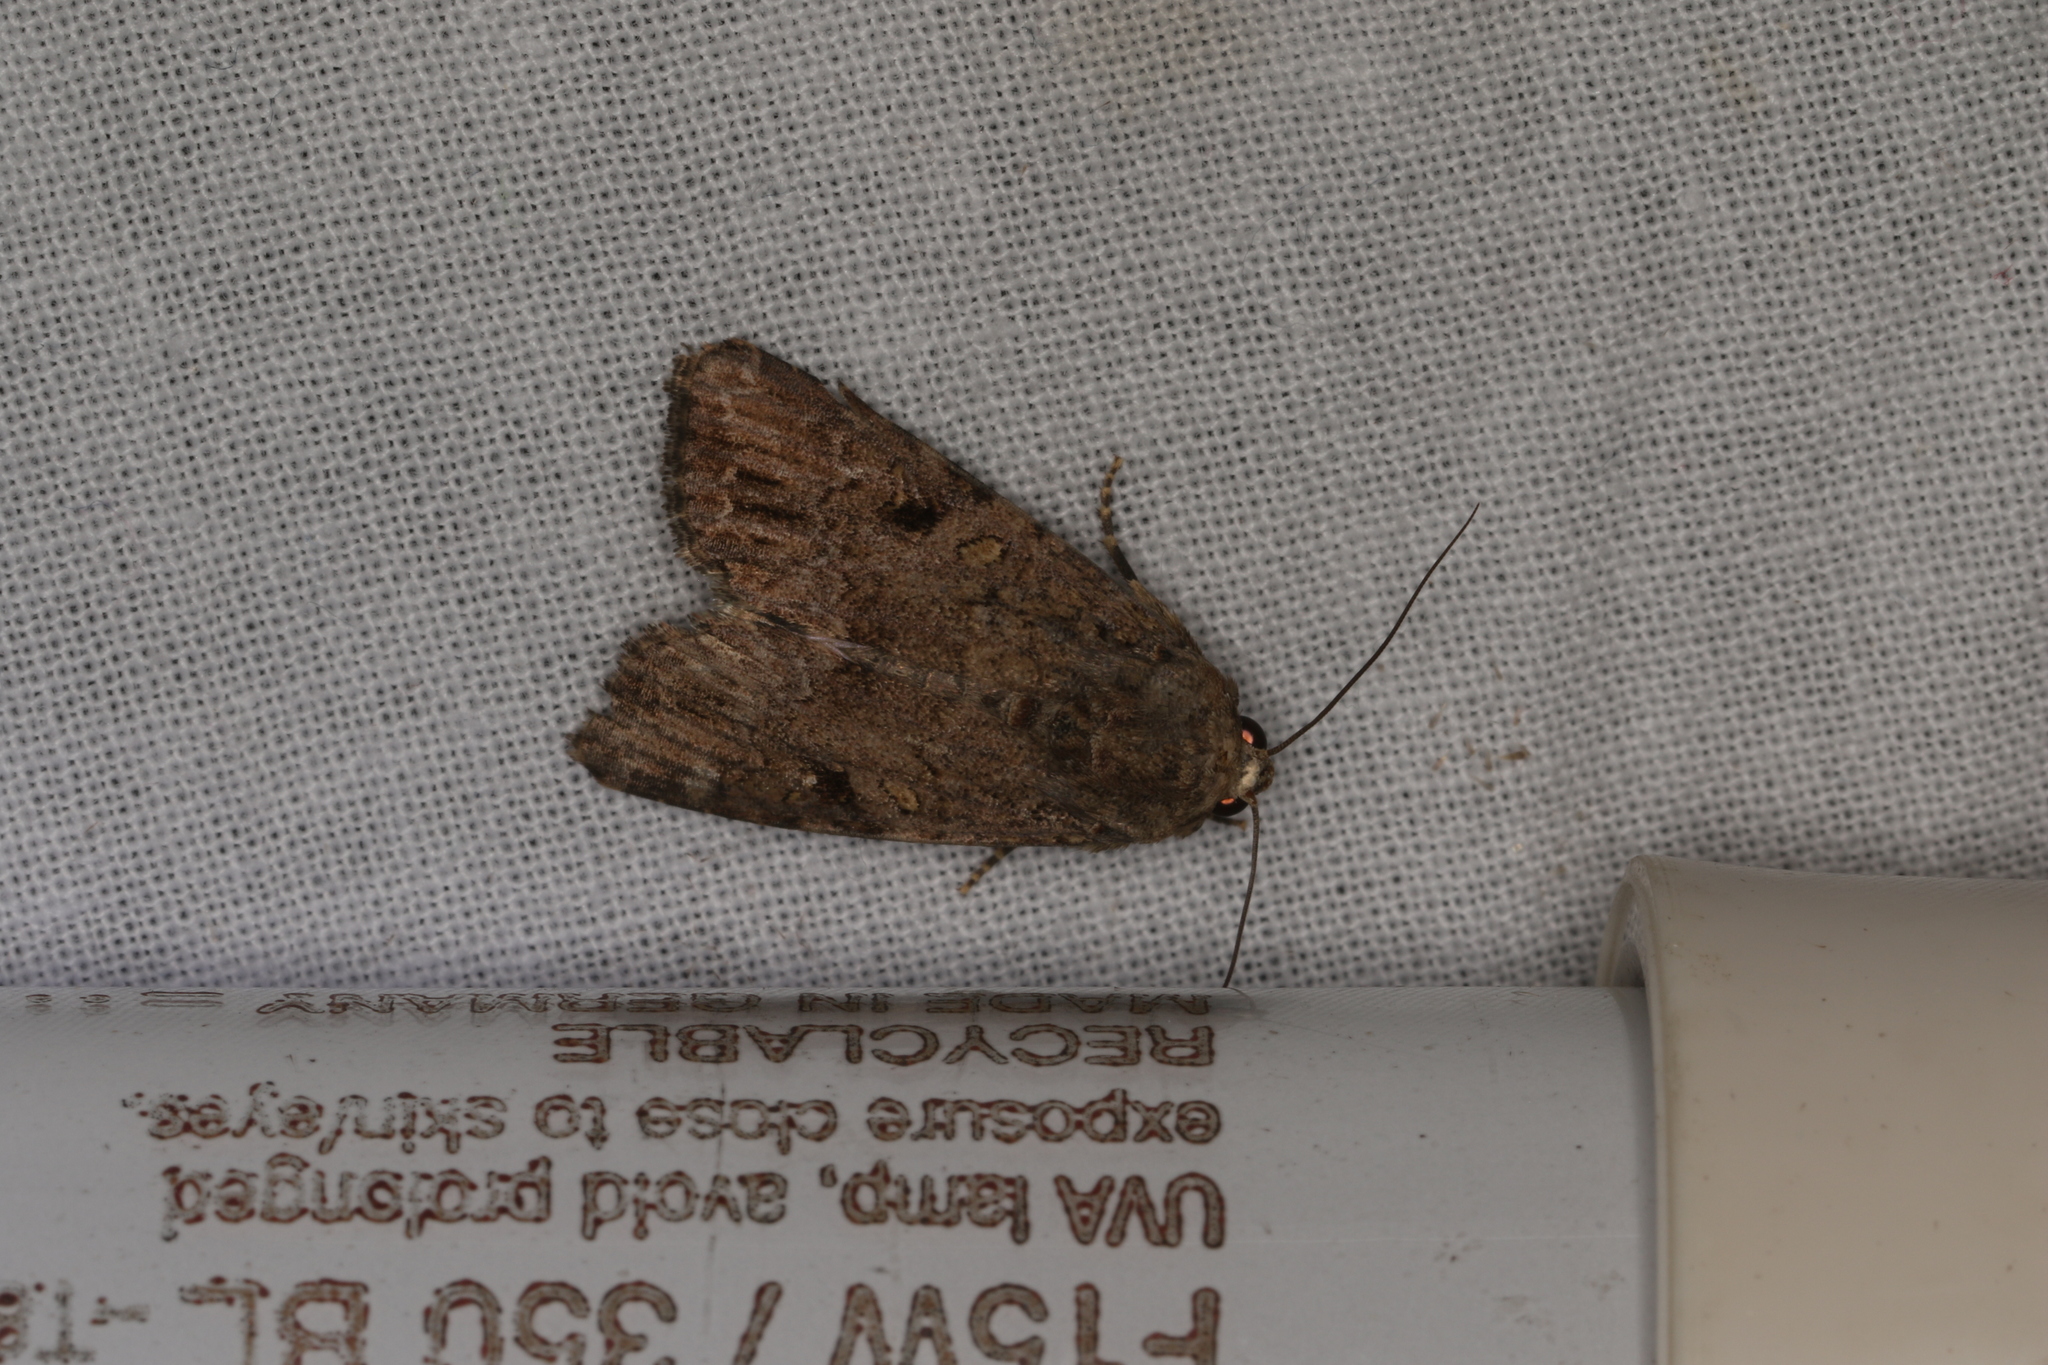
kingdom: Animalia
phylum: Arthropoda
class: Insecta
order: Lepidoptera
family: Noctuidae
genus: Spodoptera
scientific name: Spodoptera mauritia
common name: Lawn armyworm
